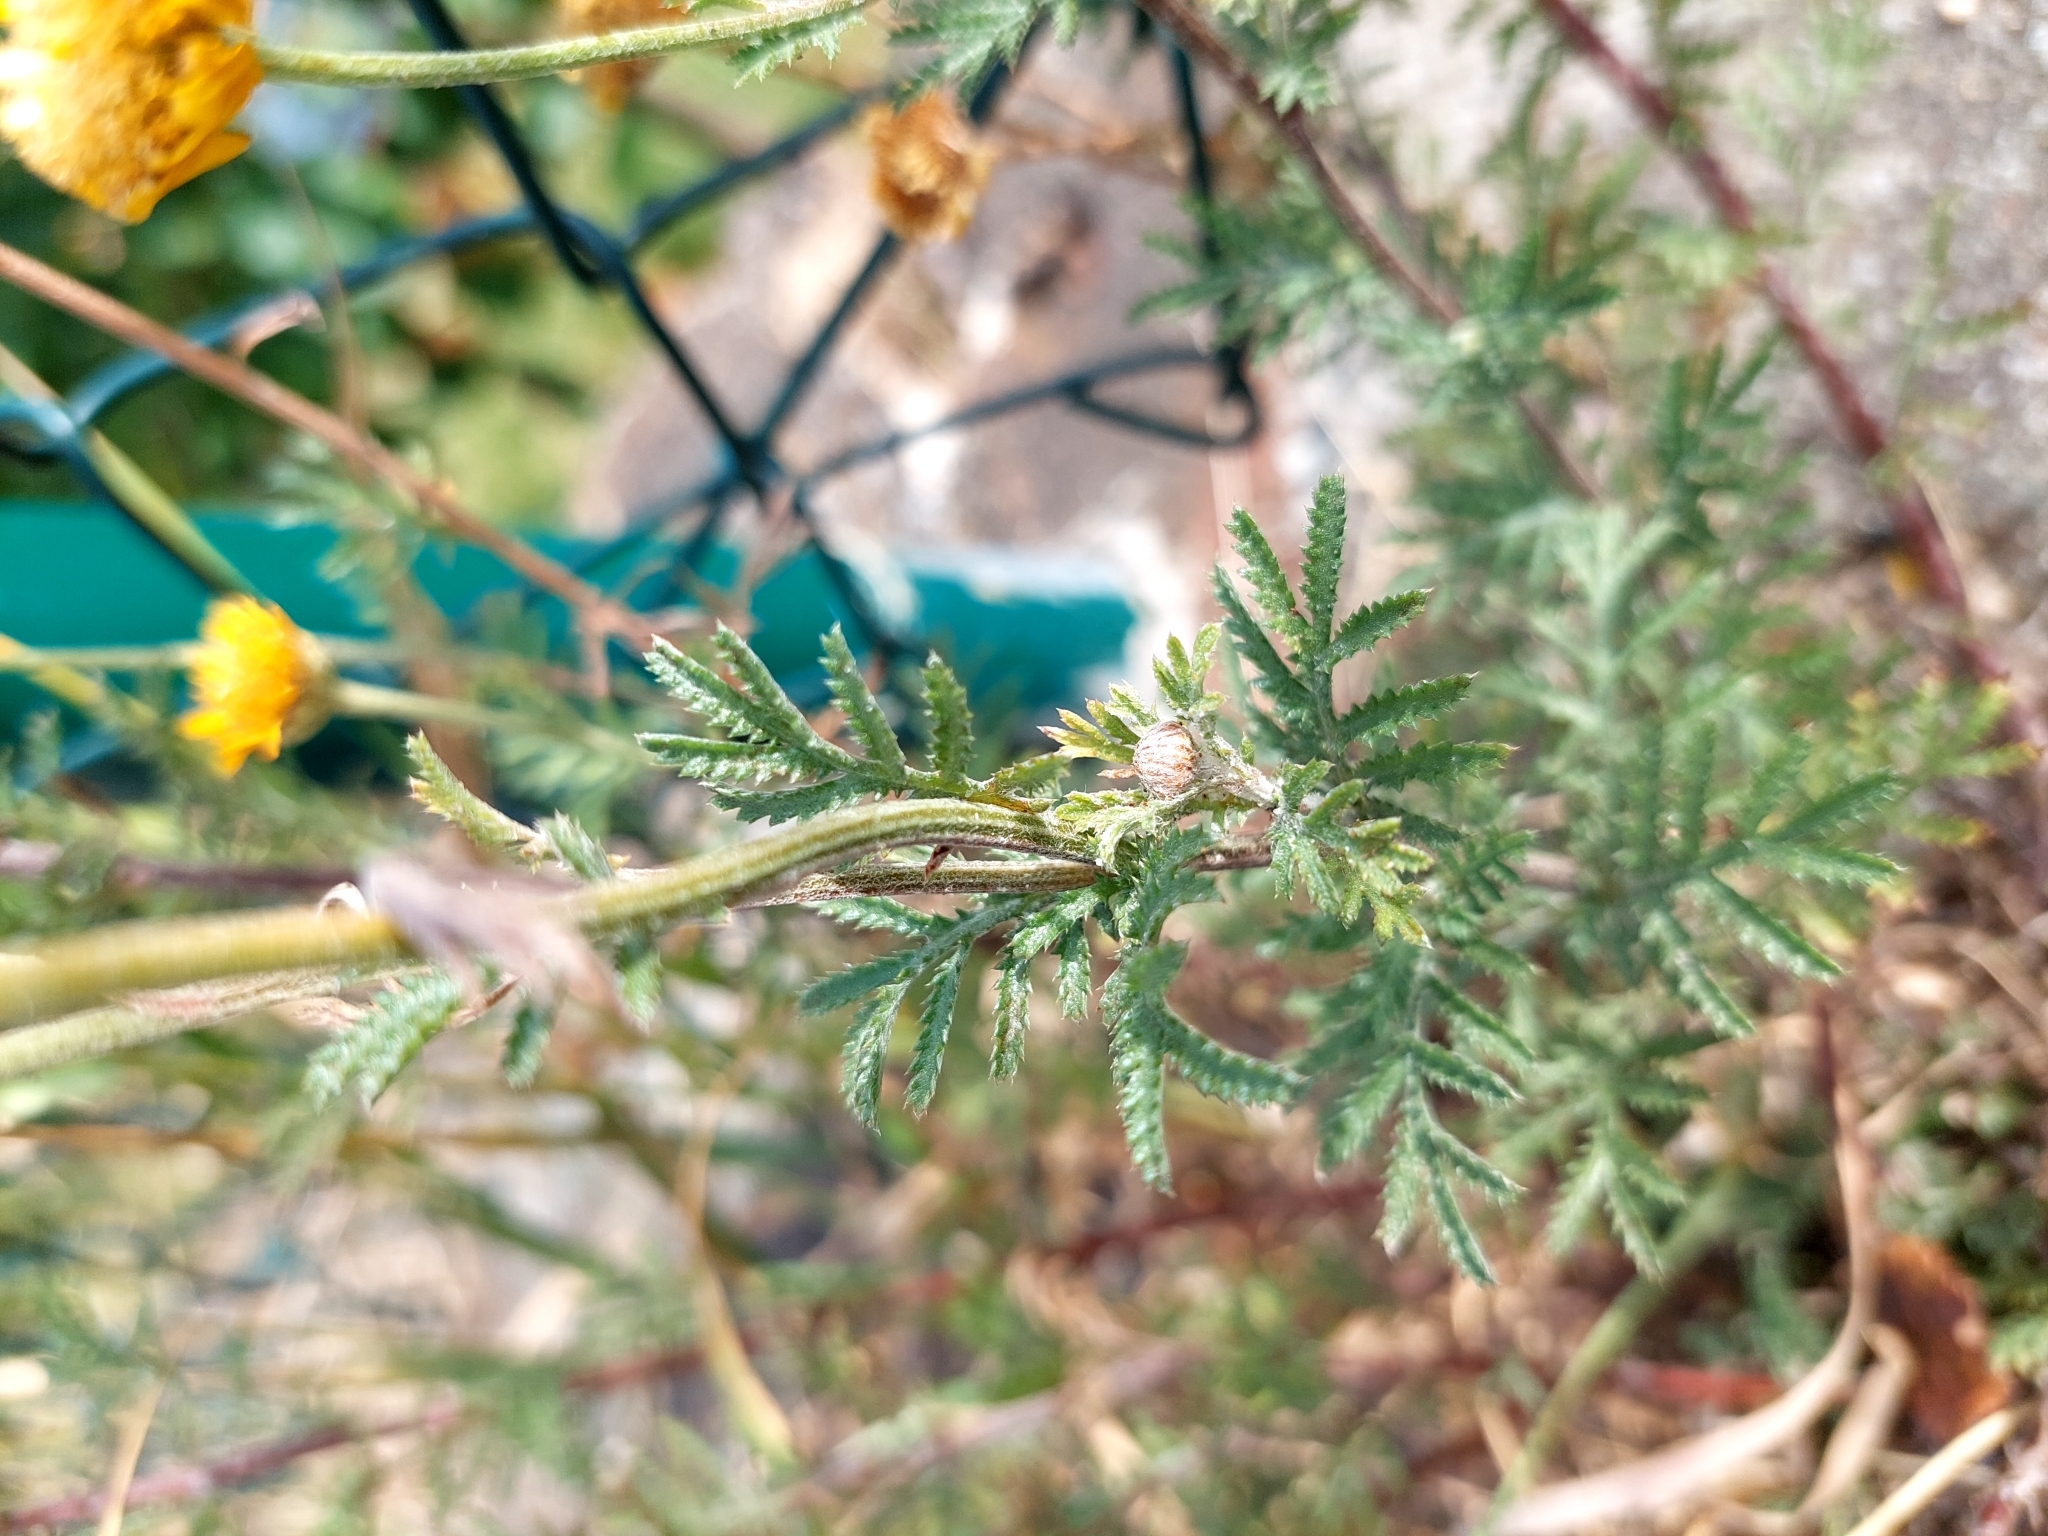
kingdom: Plantae
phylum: Tracheophyta
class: Magnoliopsida
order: Asterales
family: Asteraceae
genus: Cota
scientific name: Cota tinctoria
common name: Golden chamomile
